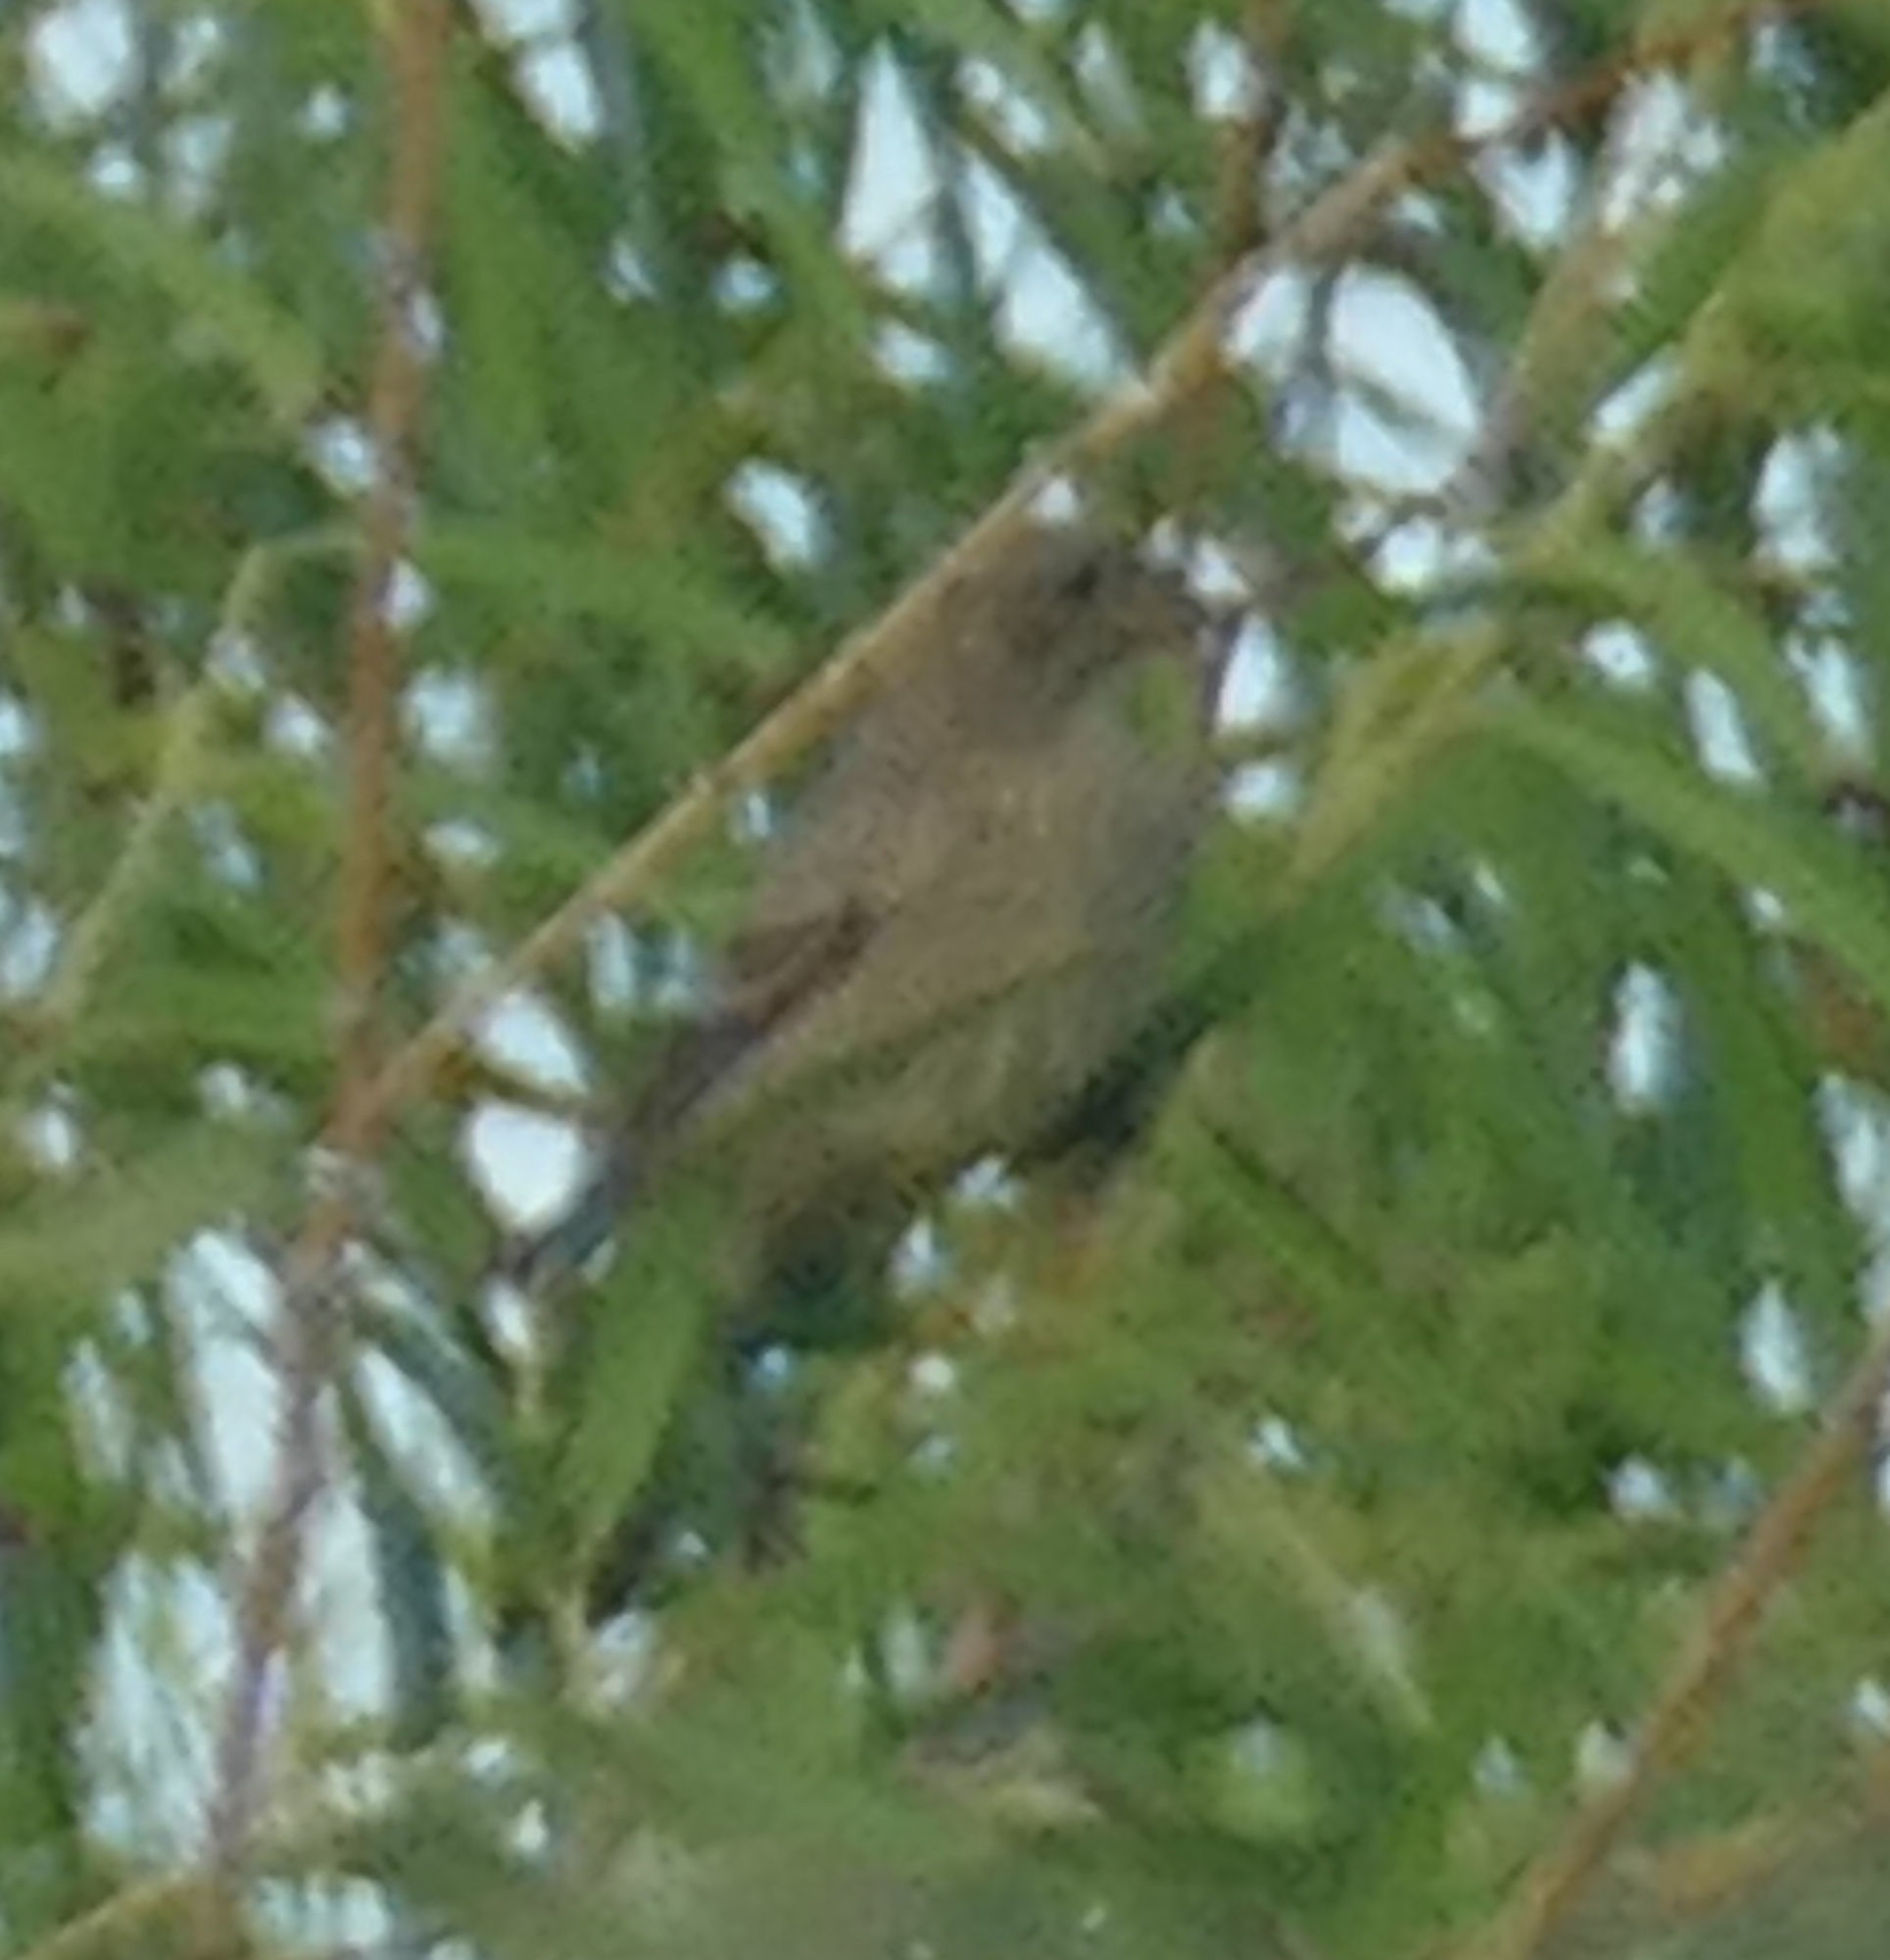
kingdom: Animalia
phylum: Chordata
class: Aves
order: Passeriformes
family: Tyrannidae
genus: Contopus
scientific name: Contopus virens
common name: Eastern wood-pewee
